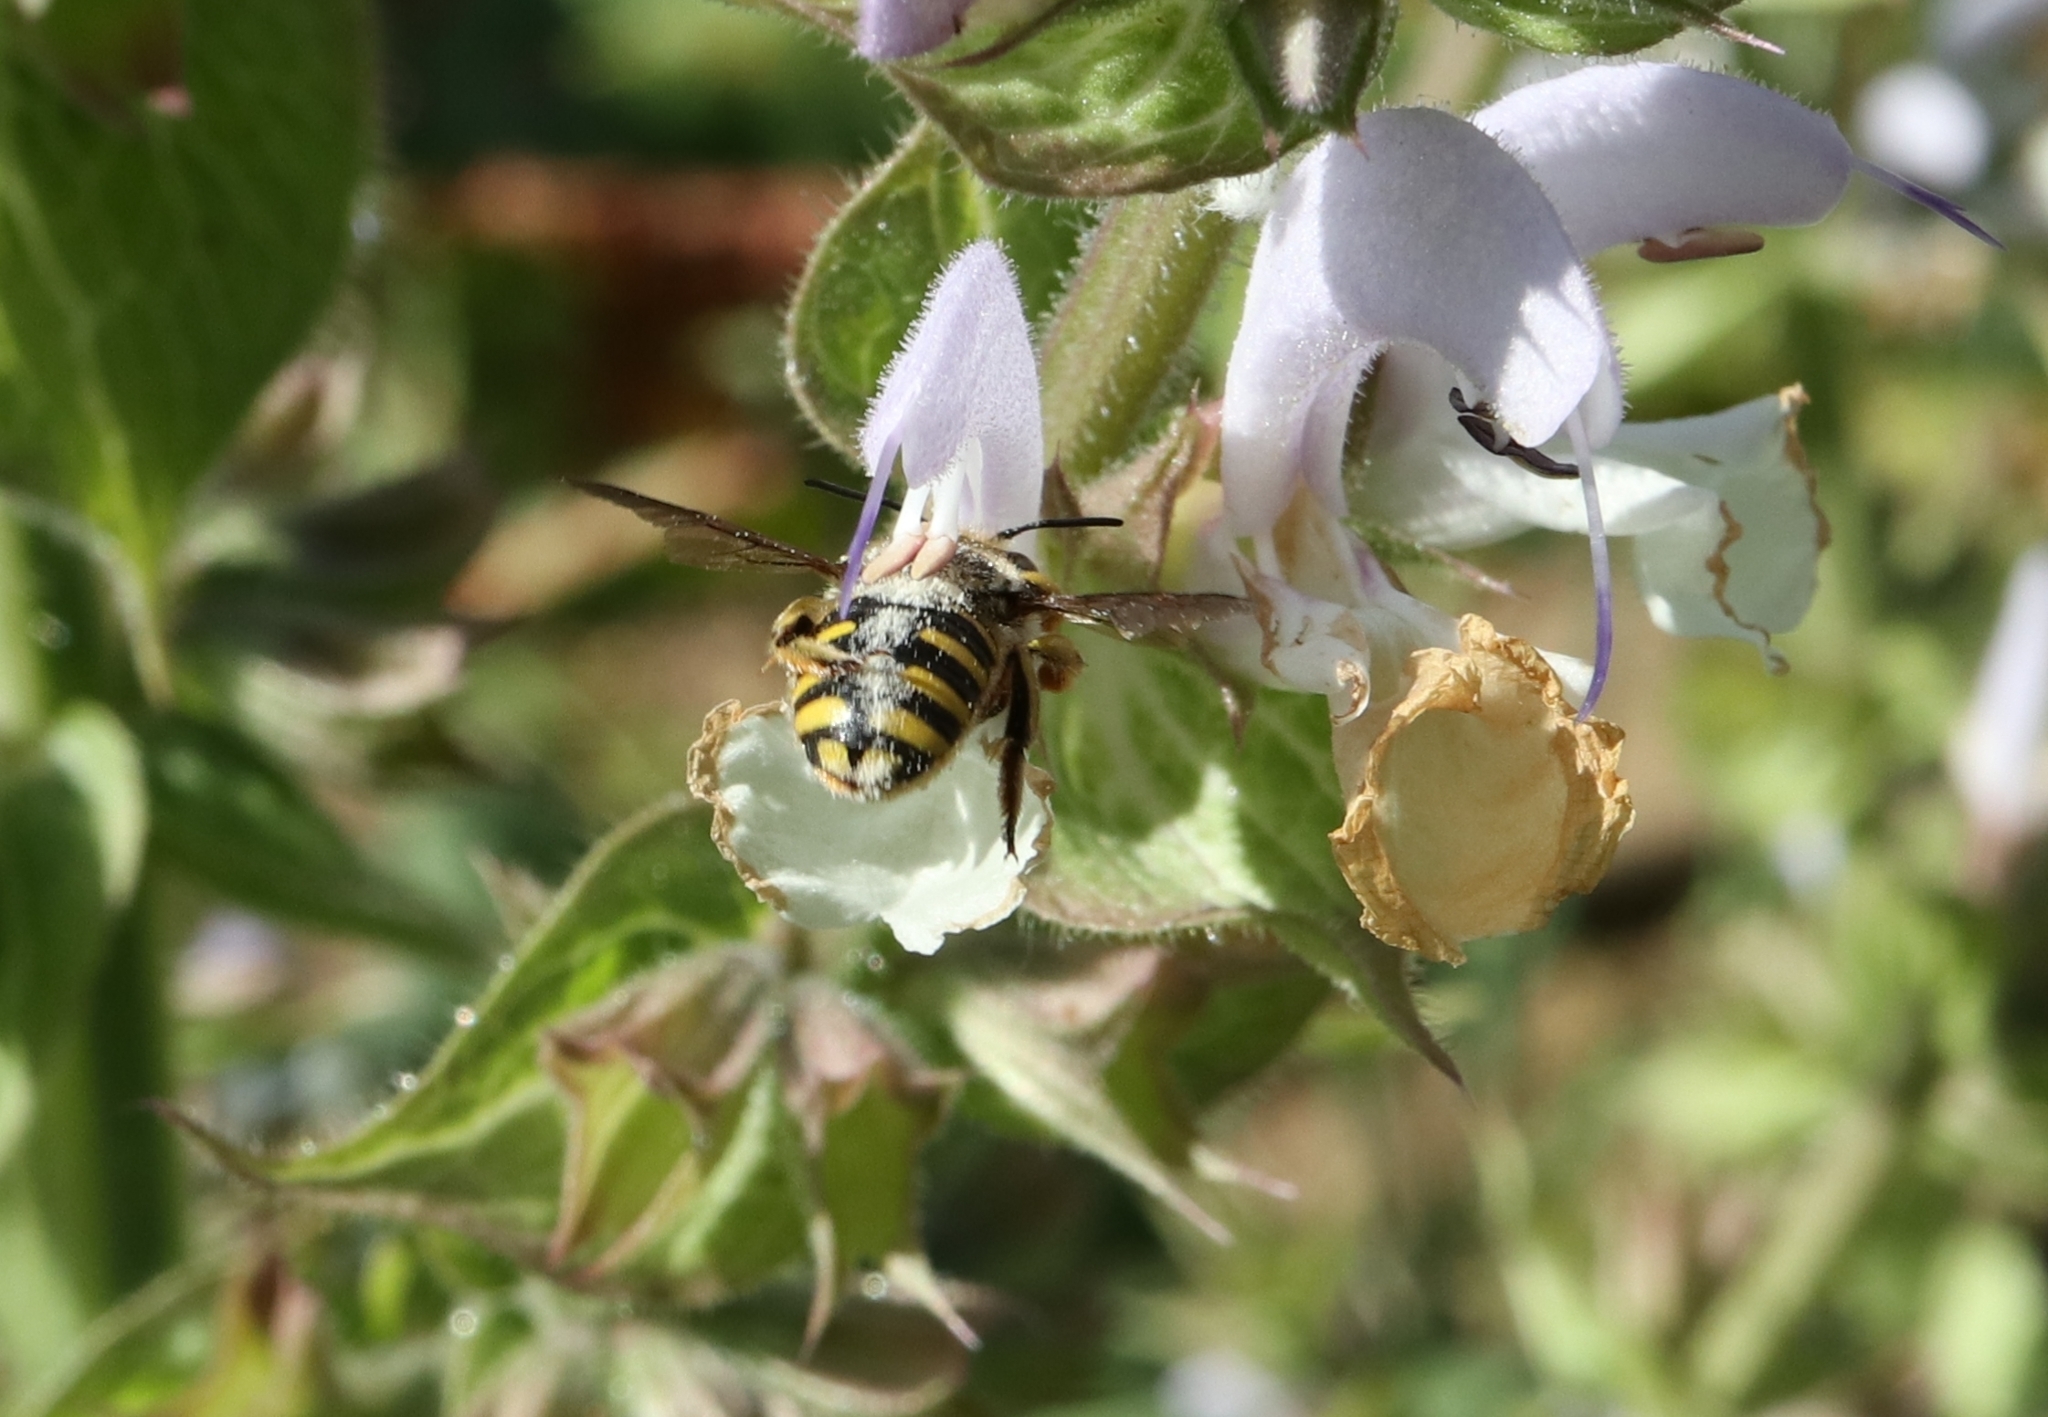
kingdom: Animalia
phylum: Arthropoda
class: Insecta
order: Hymenoptera
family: Megachilidae
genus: Anthidium
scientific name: Anthidium manicatum
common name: Wool carder bee
